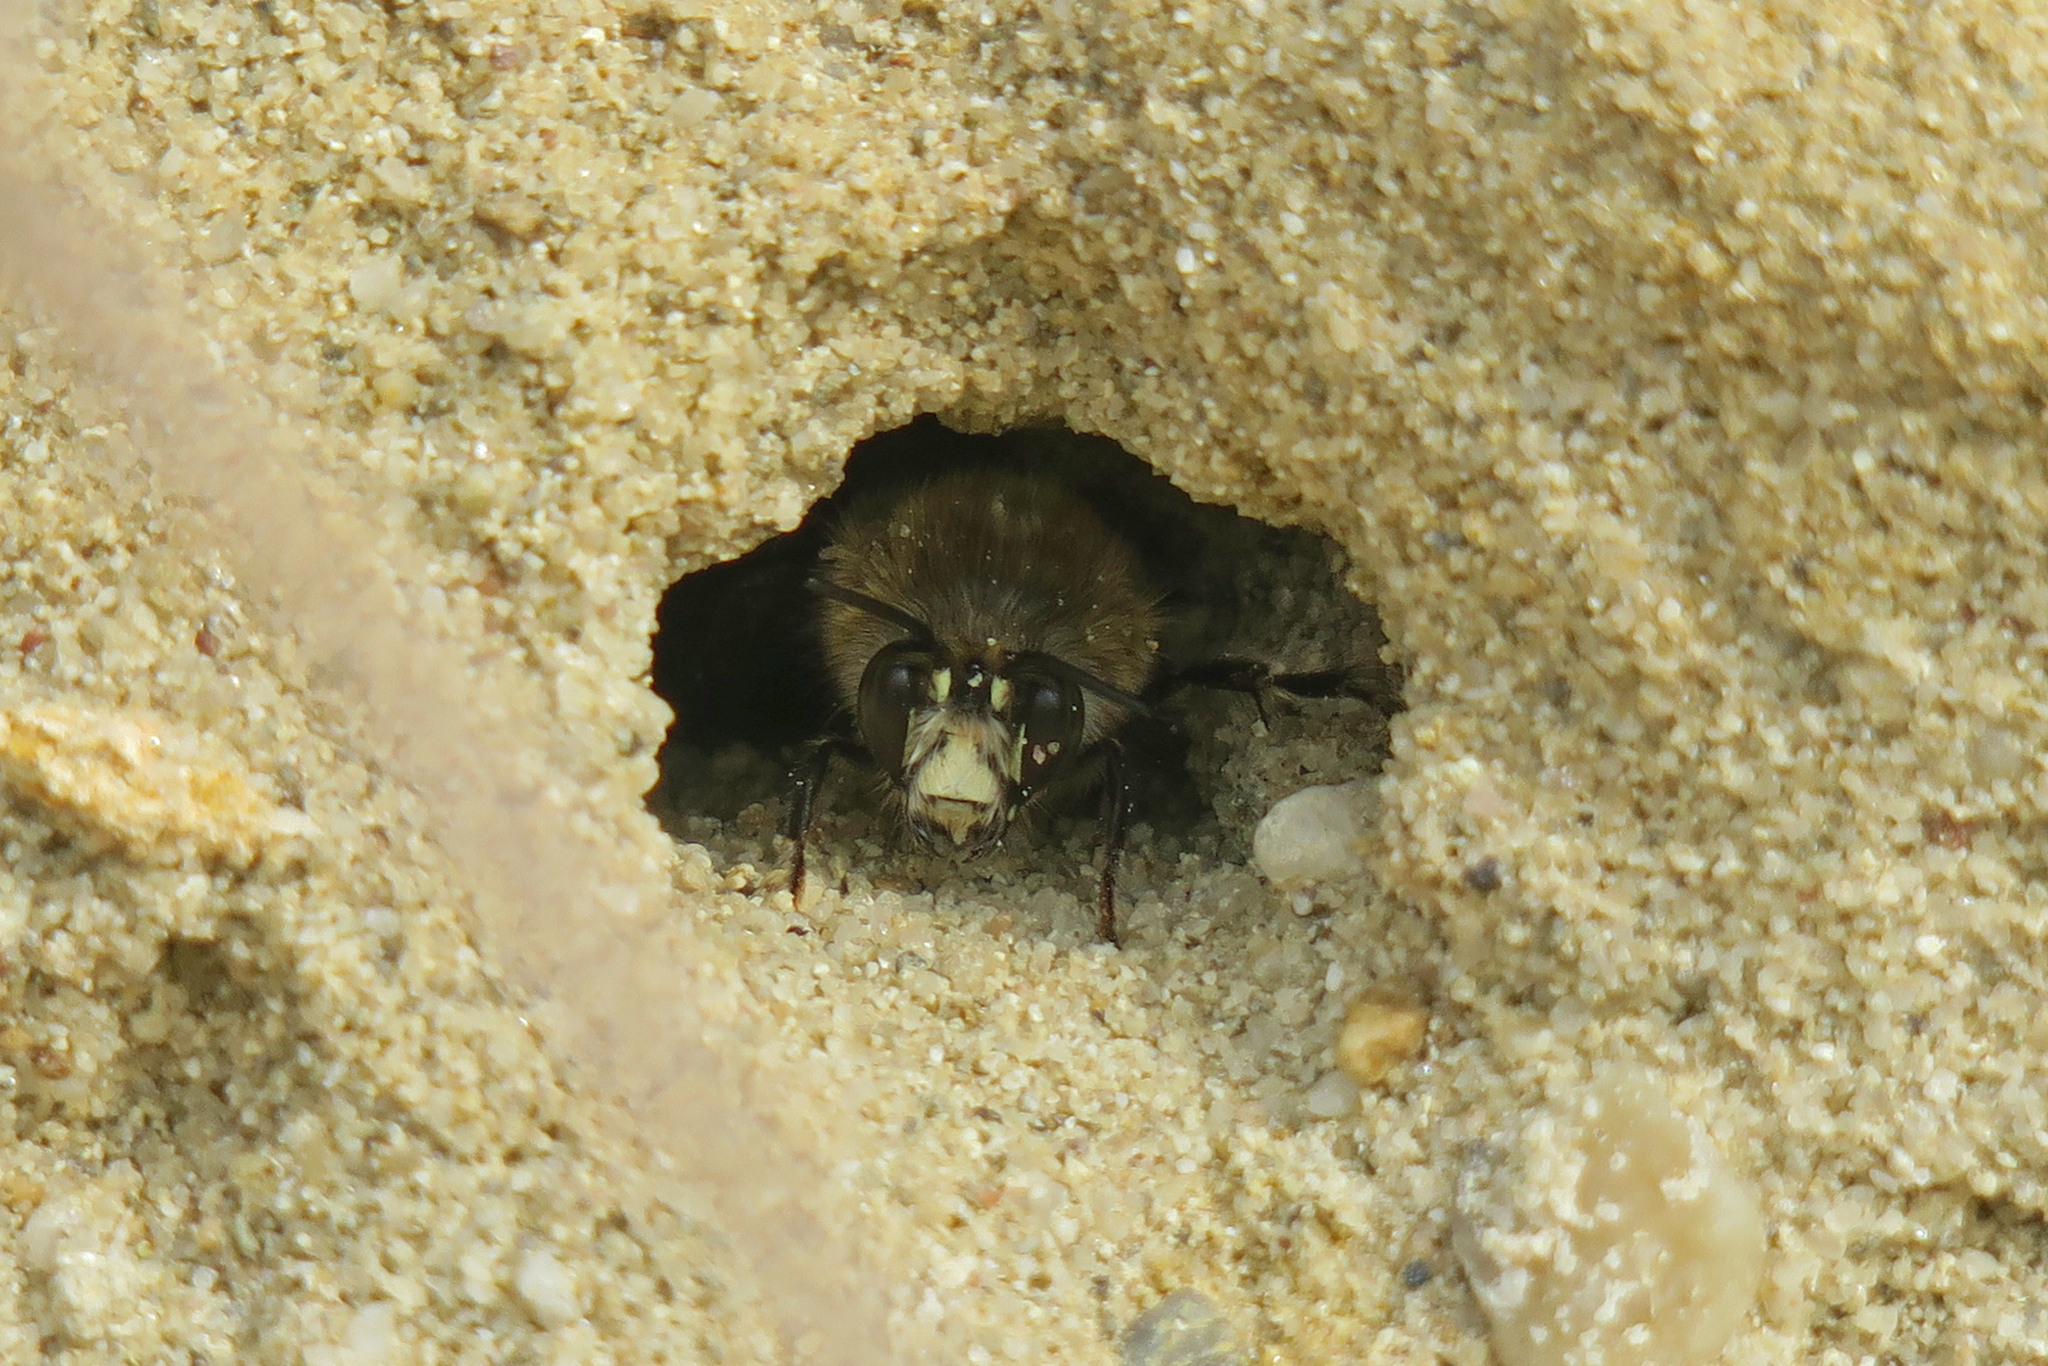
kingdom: Animalia
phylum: Arthropoda
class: Insecta
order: Hymenoptera
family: Apidae
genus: Anthophora
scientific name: Anthophora plumipes
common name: Hairy-footed flower bee
